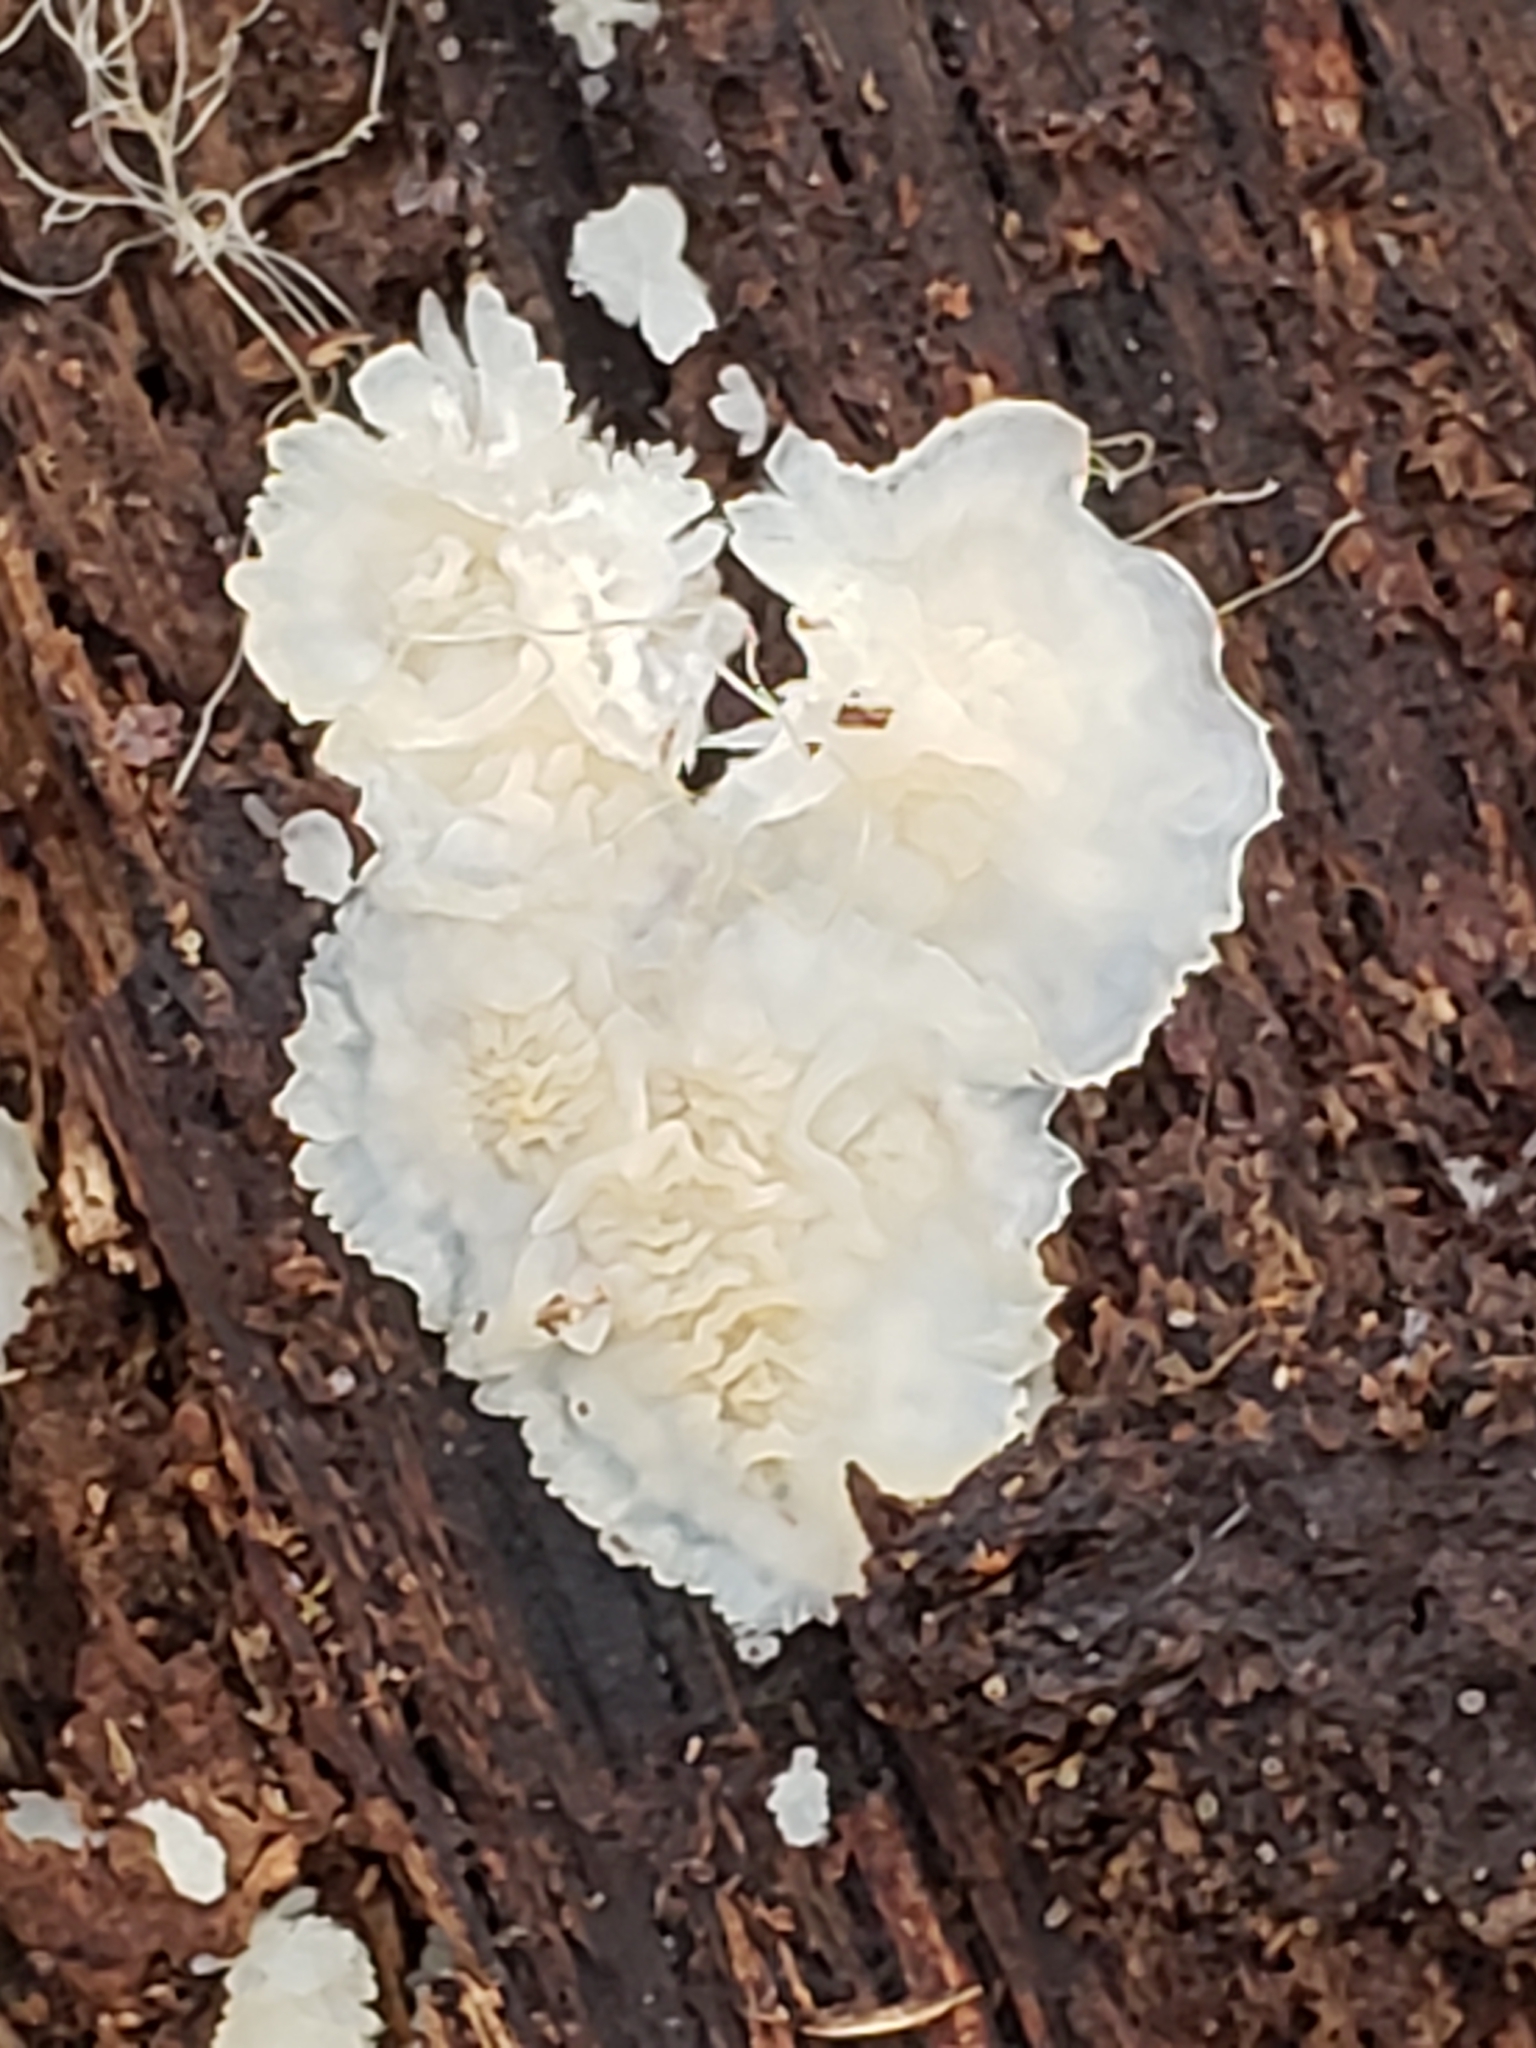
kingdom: Fungi
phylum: Basidiomycota
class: Agaricomycetes
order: Polyporales
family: Meruliaceae
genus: Phlebia
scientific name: Phlebia tremellosa
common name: Jelly rot
